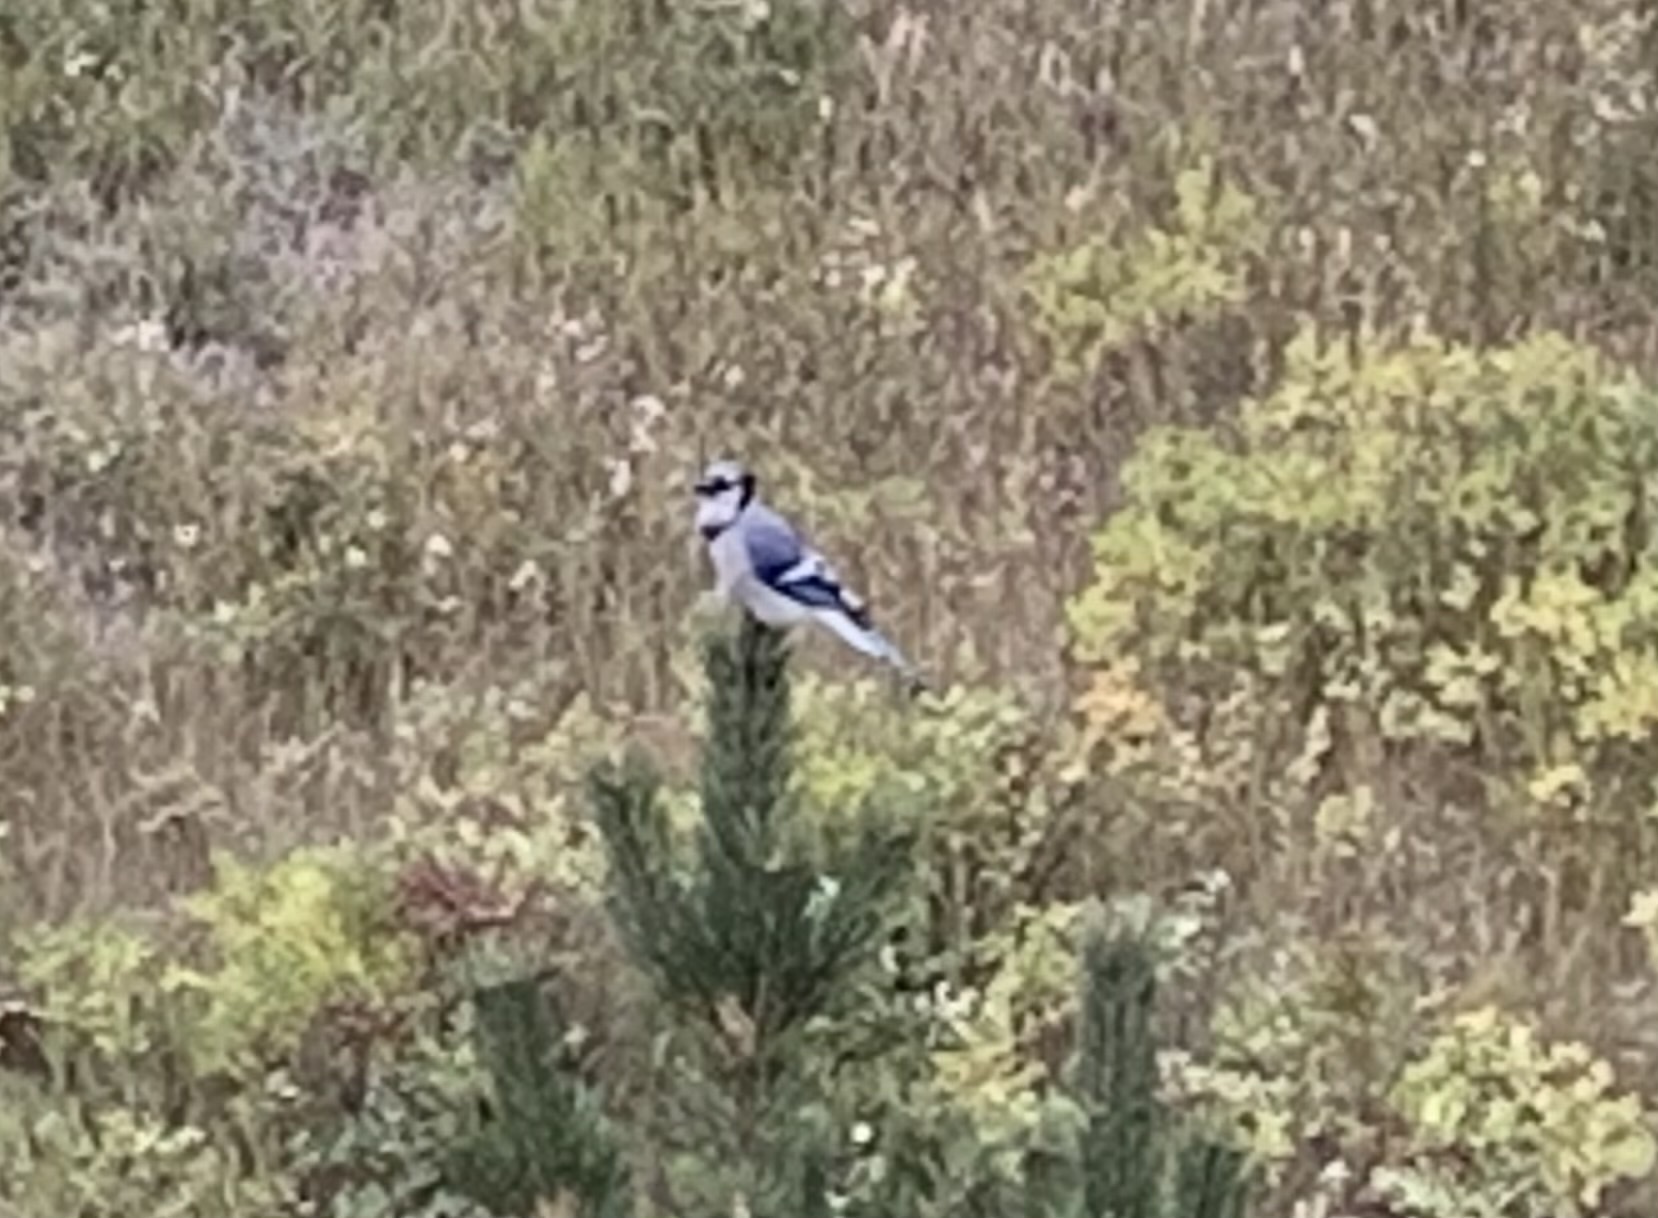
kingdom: Animalia
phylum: Chordata
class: Aves
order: Passeriformes
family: Corvidae
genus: Cyanocitta
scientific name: Cyanocitta cristata
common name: Blue jay
